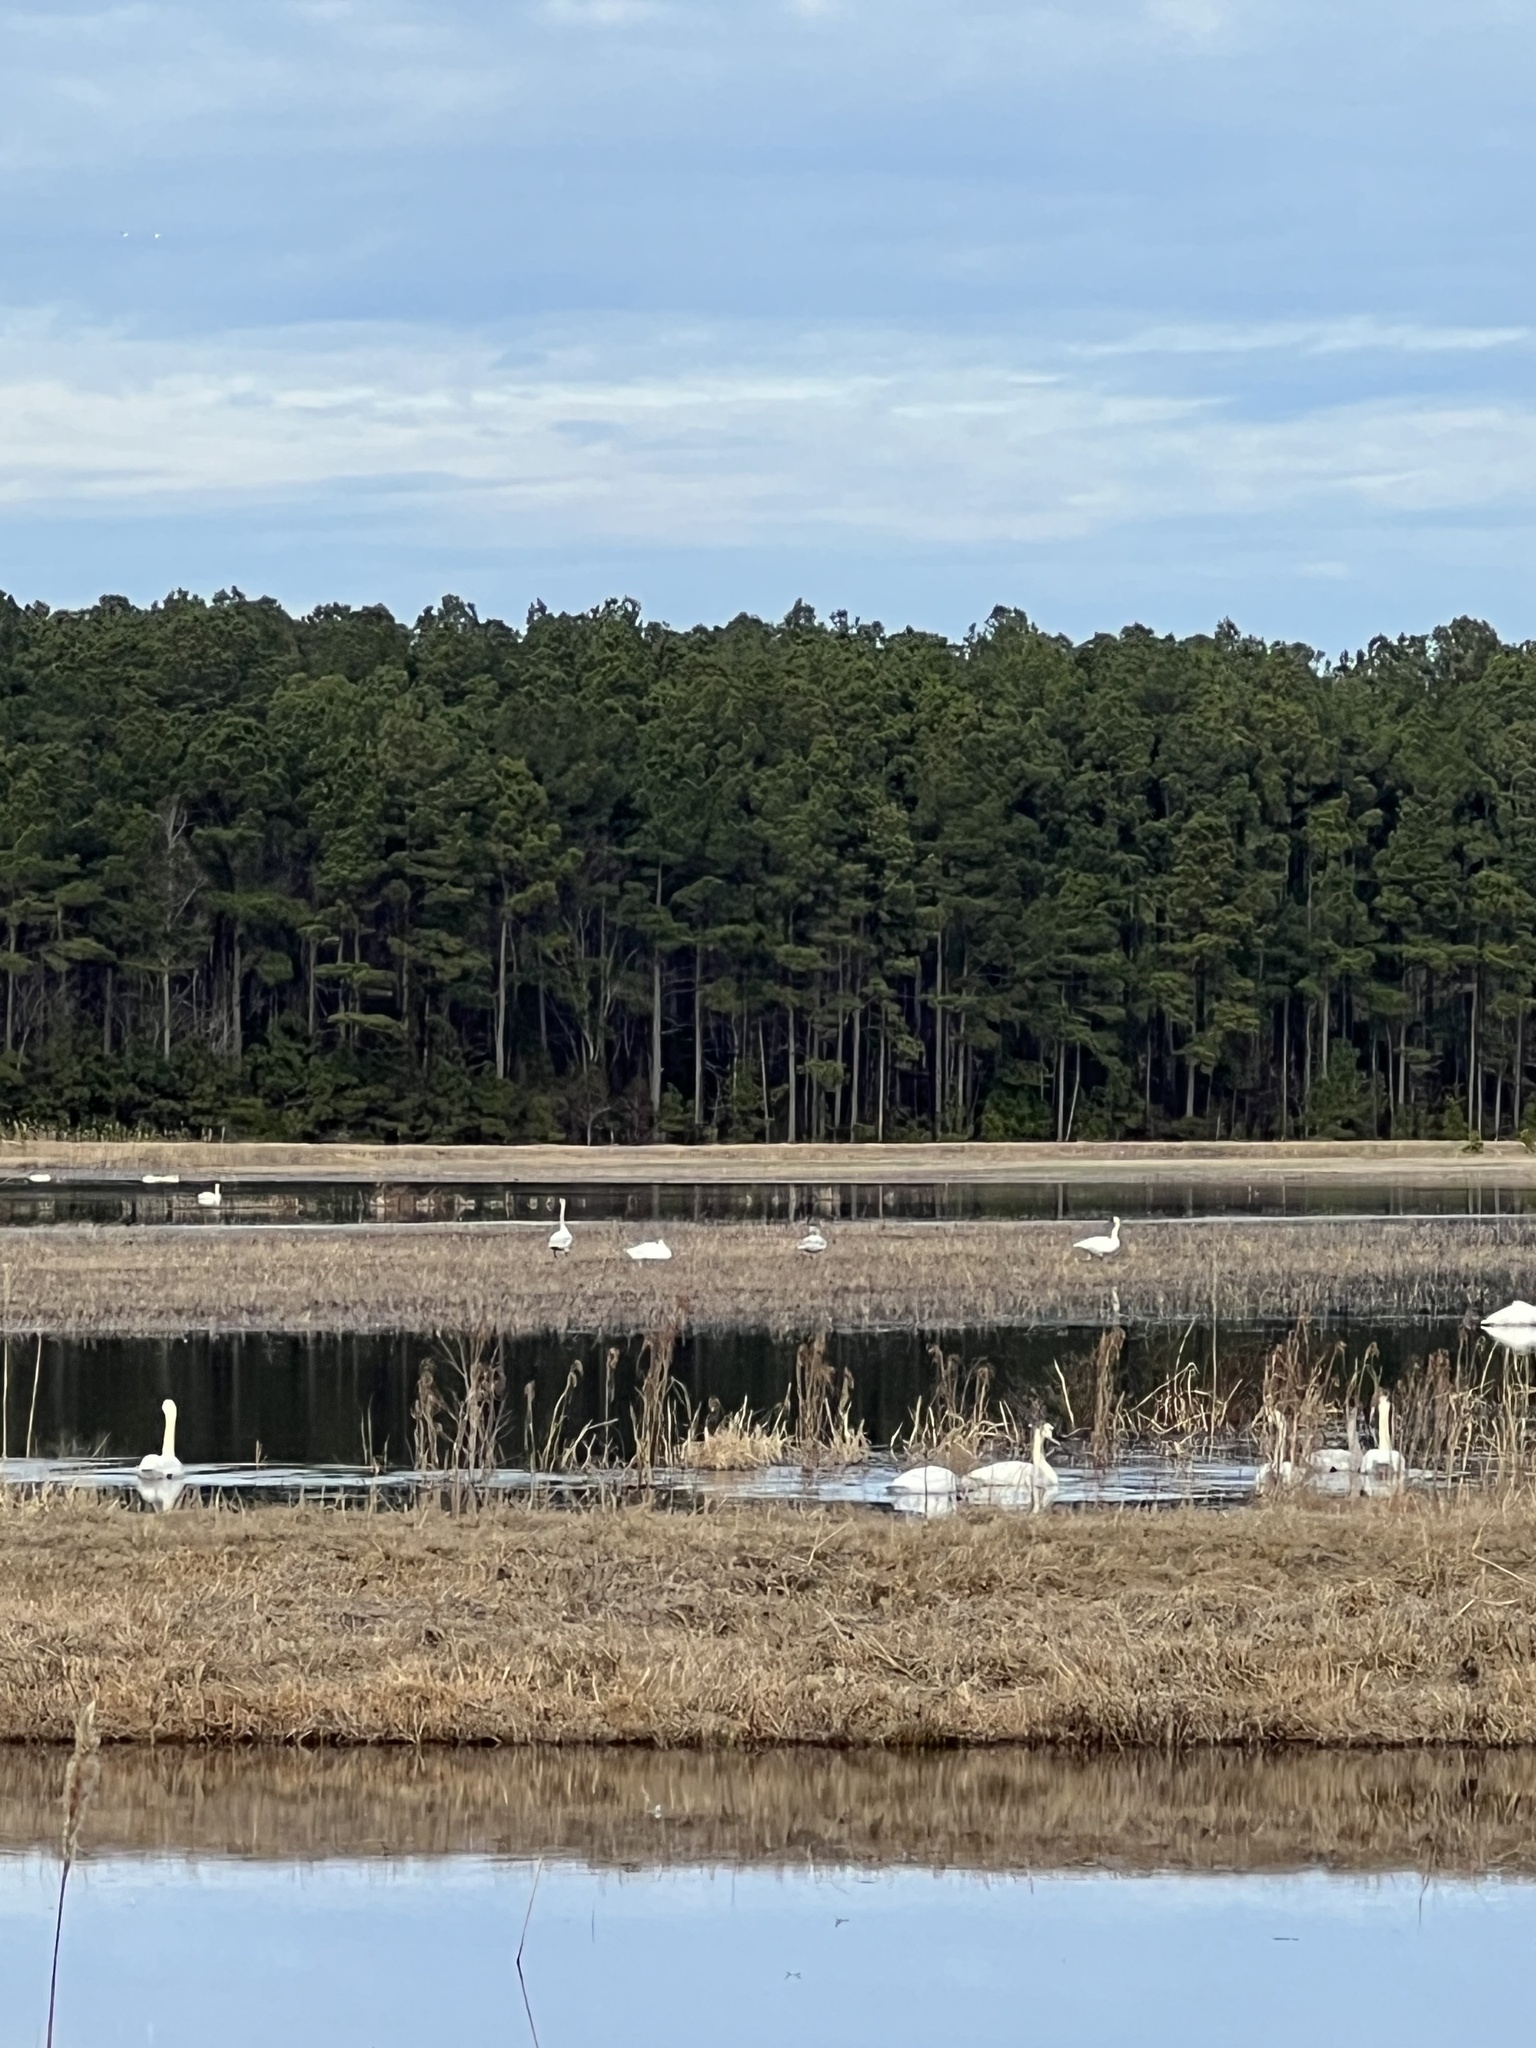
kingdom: Animalia
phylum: Chordata
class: Aves
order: Anseriformes
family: Anatidae
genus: Cygnus
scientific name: Cygnus columbianus
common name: Tundra swan
